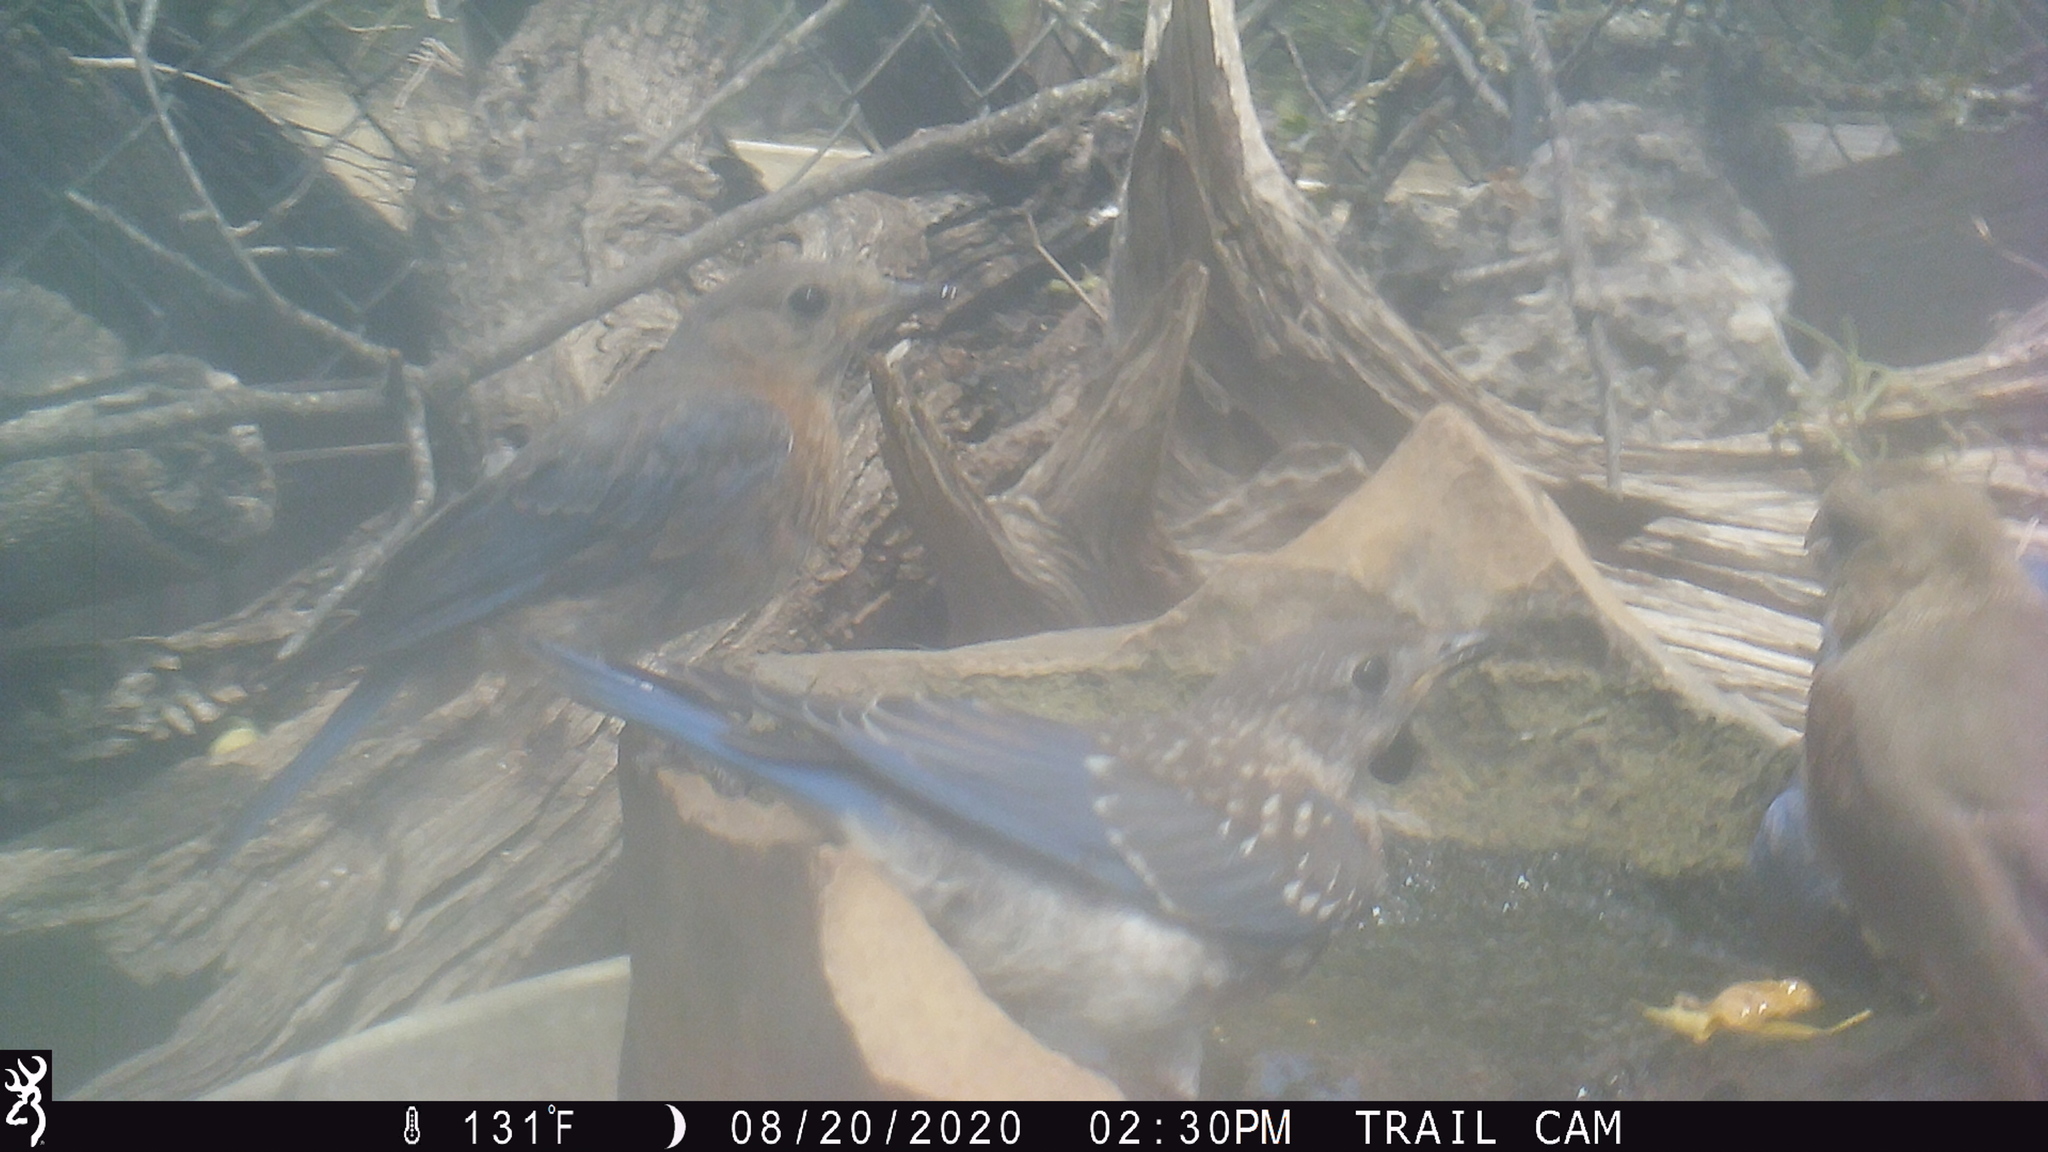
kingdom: Animalia
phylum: Chordata
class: Aves
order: Passeriformes
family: Turdidae
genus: Sialia
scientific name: Sialia sialis
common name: Eastern bluebird
